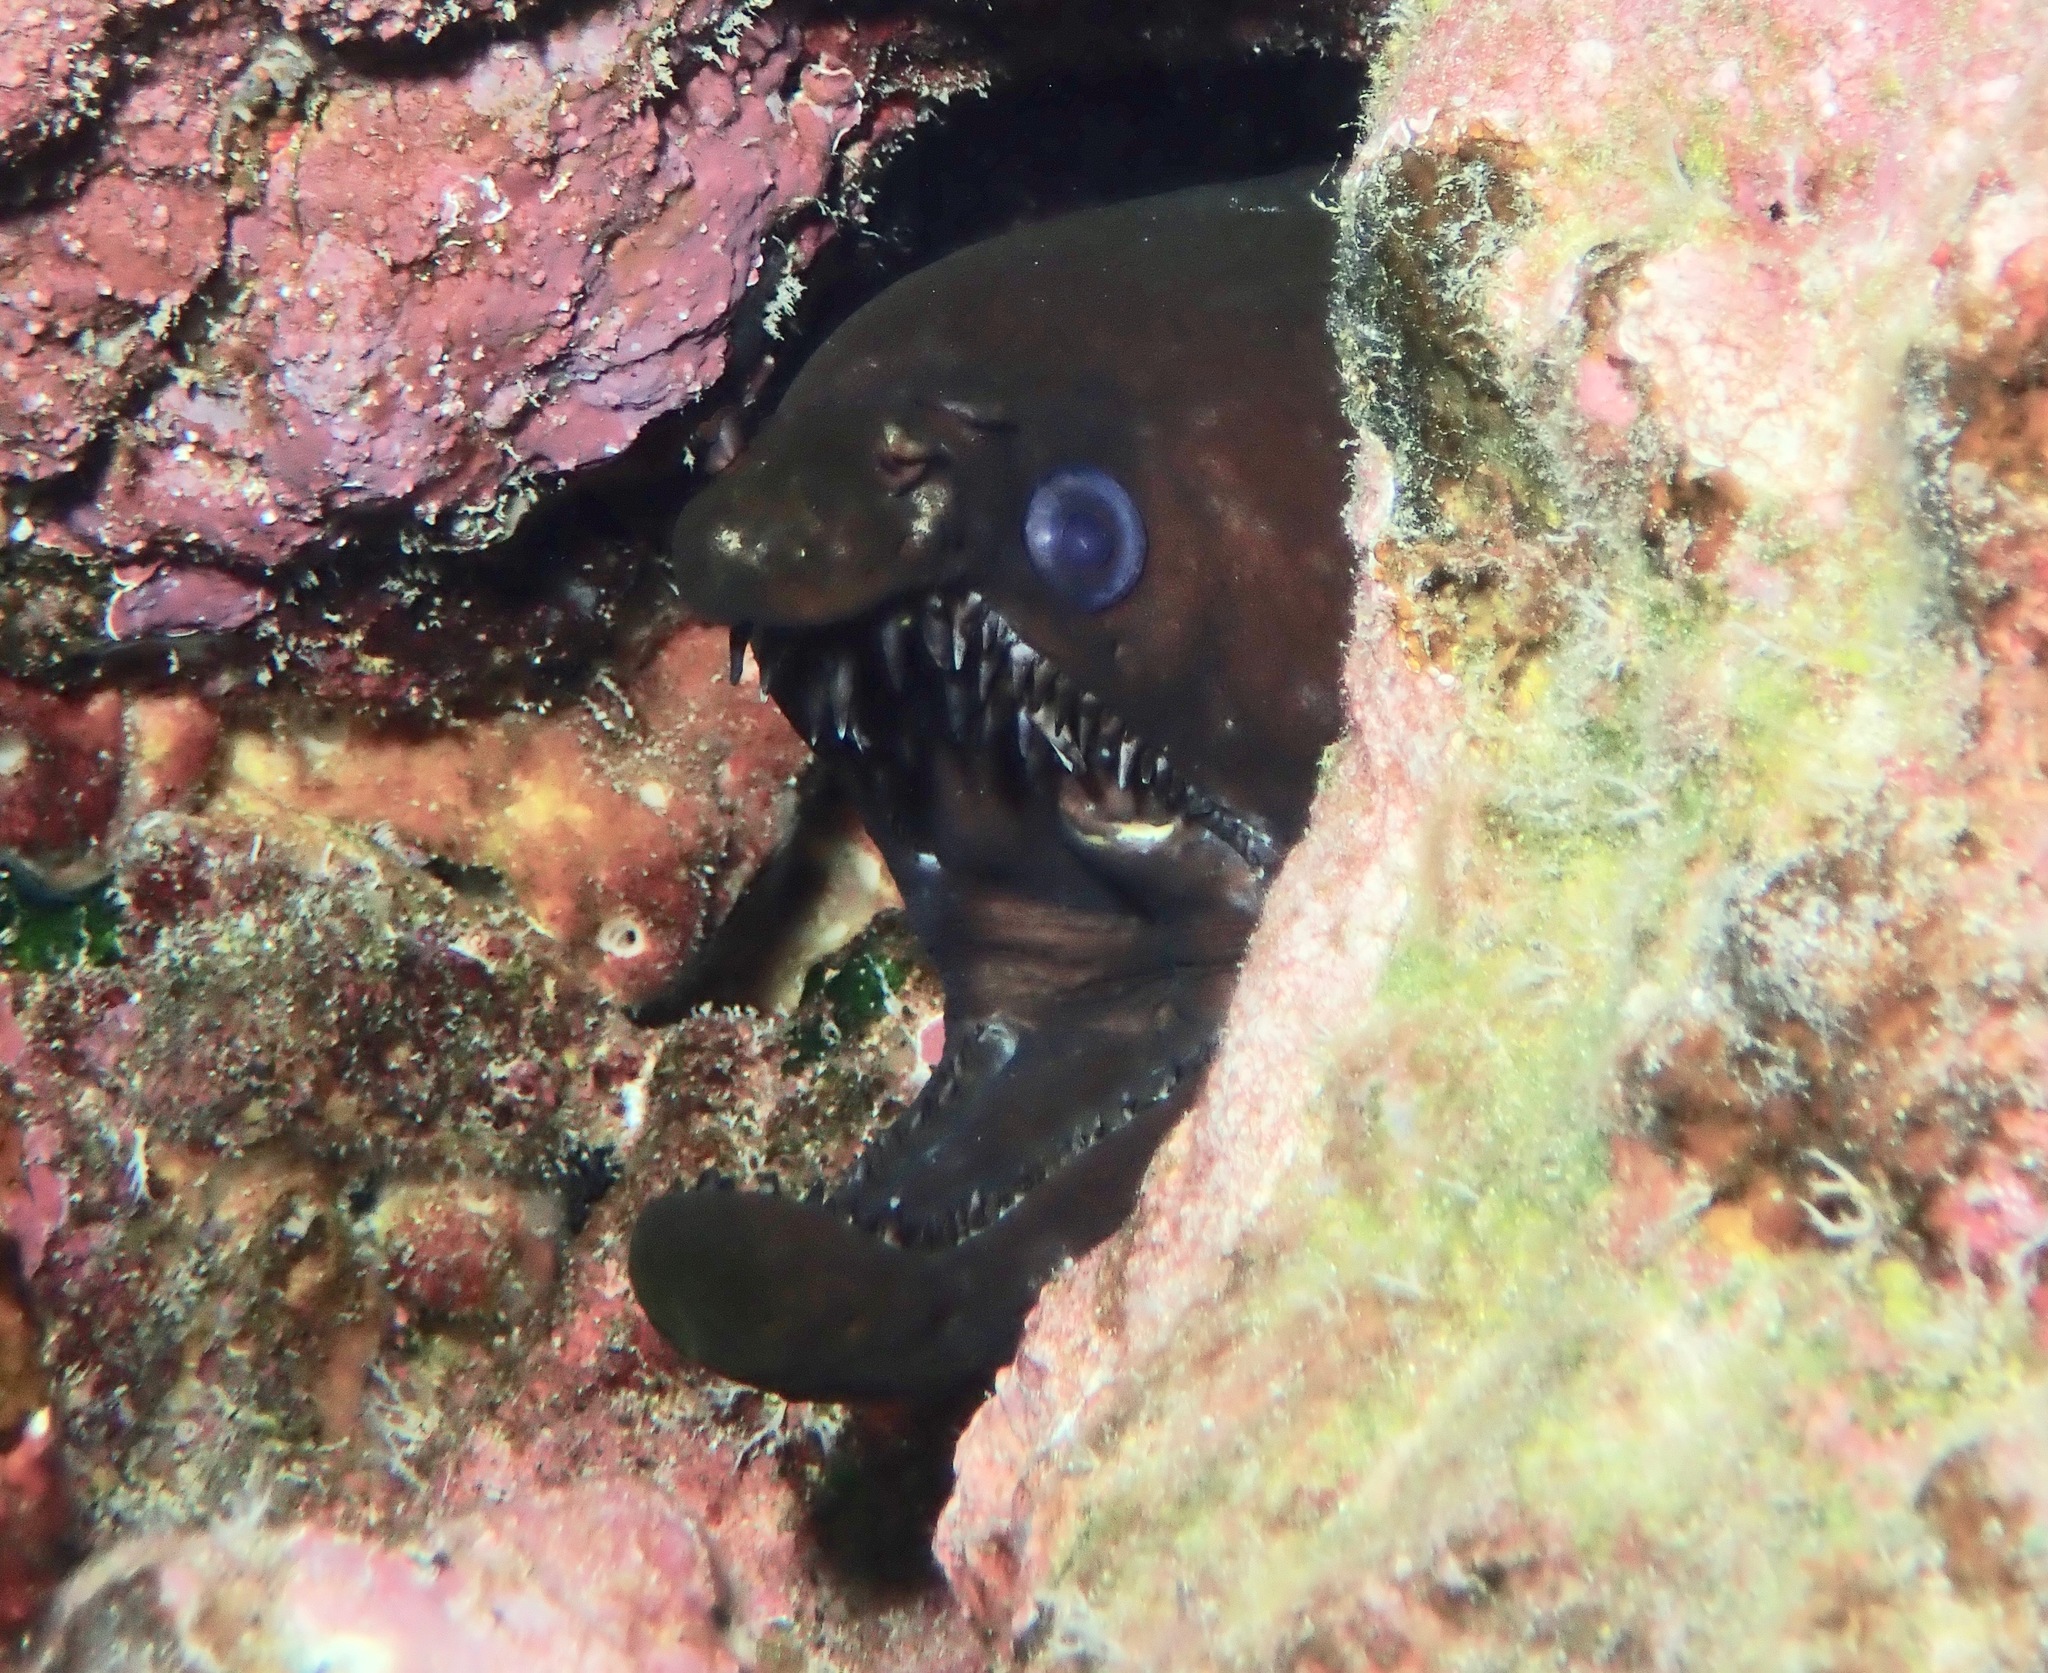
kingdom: Animalia
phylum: Chordata
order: Anguilliformes
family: Muraenidae
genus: Enchelynassa
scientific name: Enchelynassa canina
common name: Viper moray
